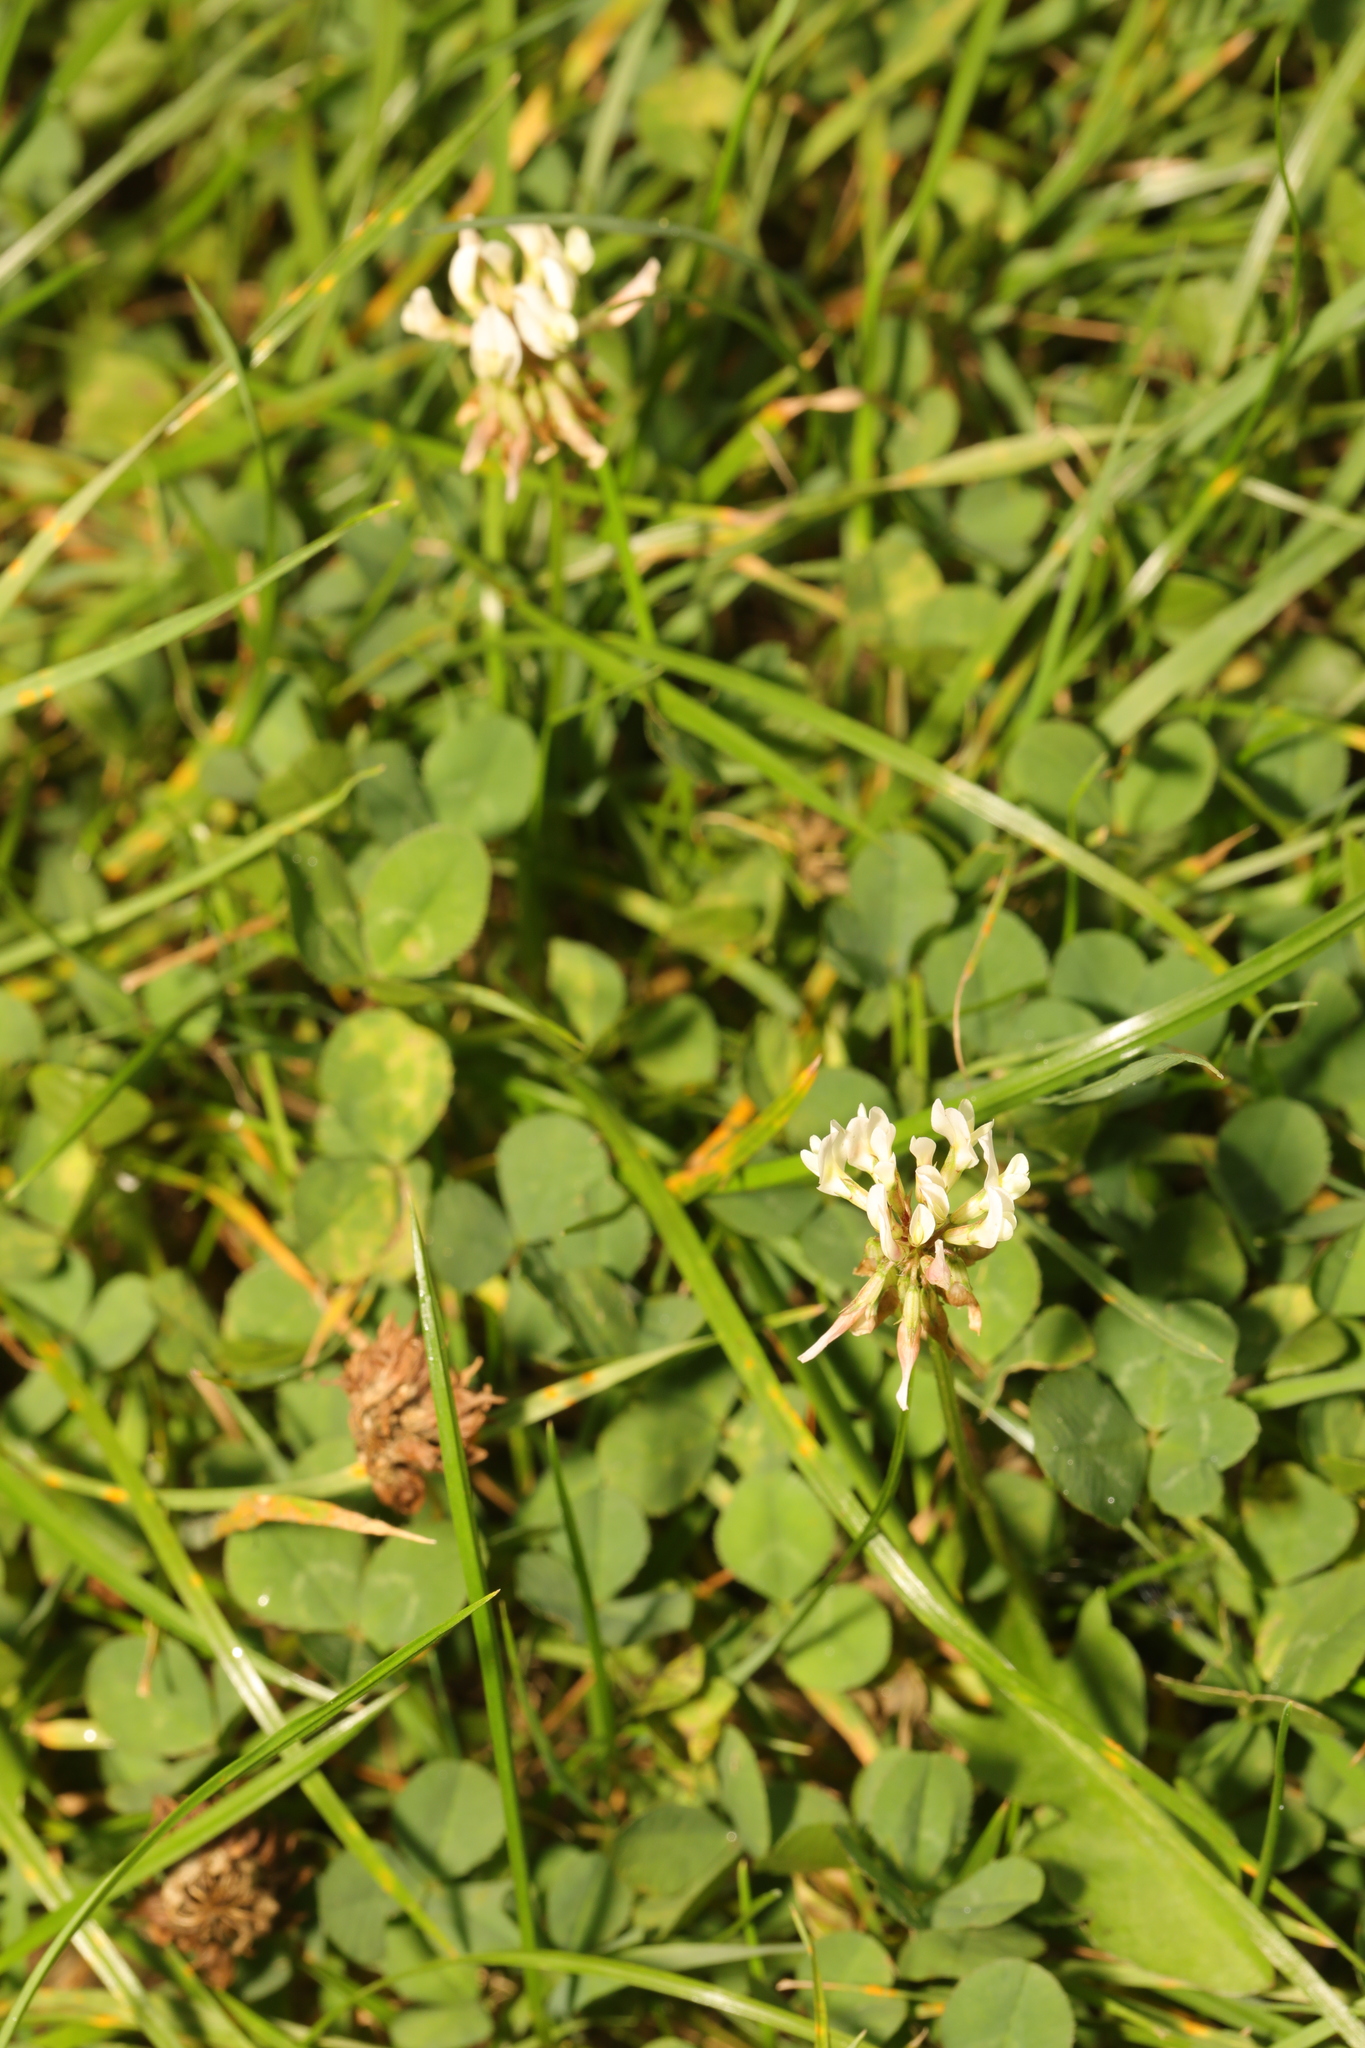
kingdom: Plantae
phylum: Tracheophyta
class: Magnoliopsida
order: Fabales
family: Fabaceae
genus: Trifolium
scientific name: Trifolium repens
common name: White clover
